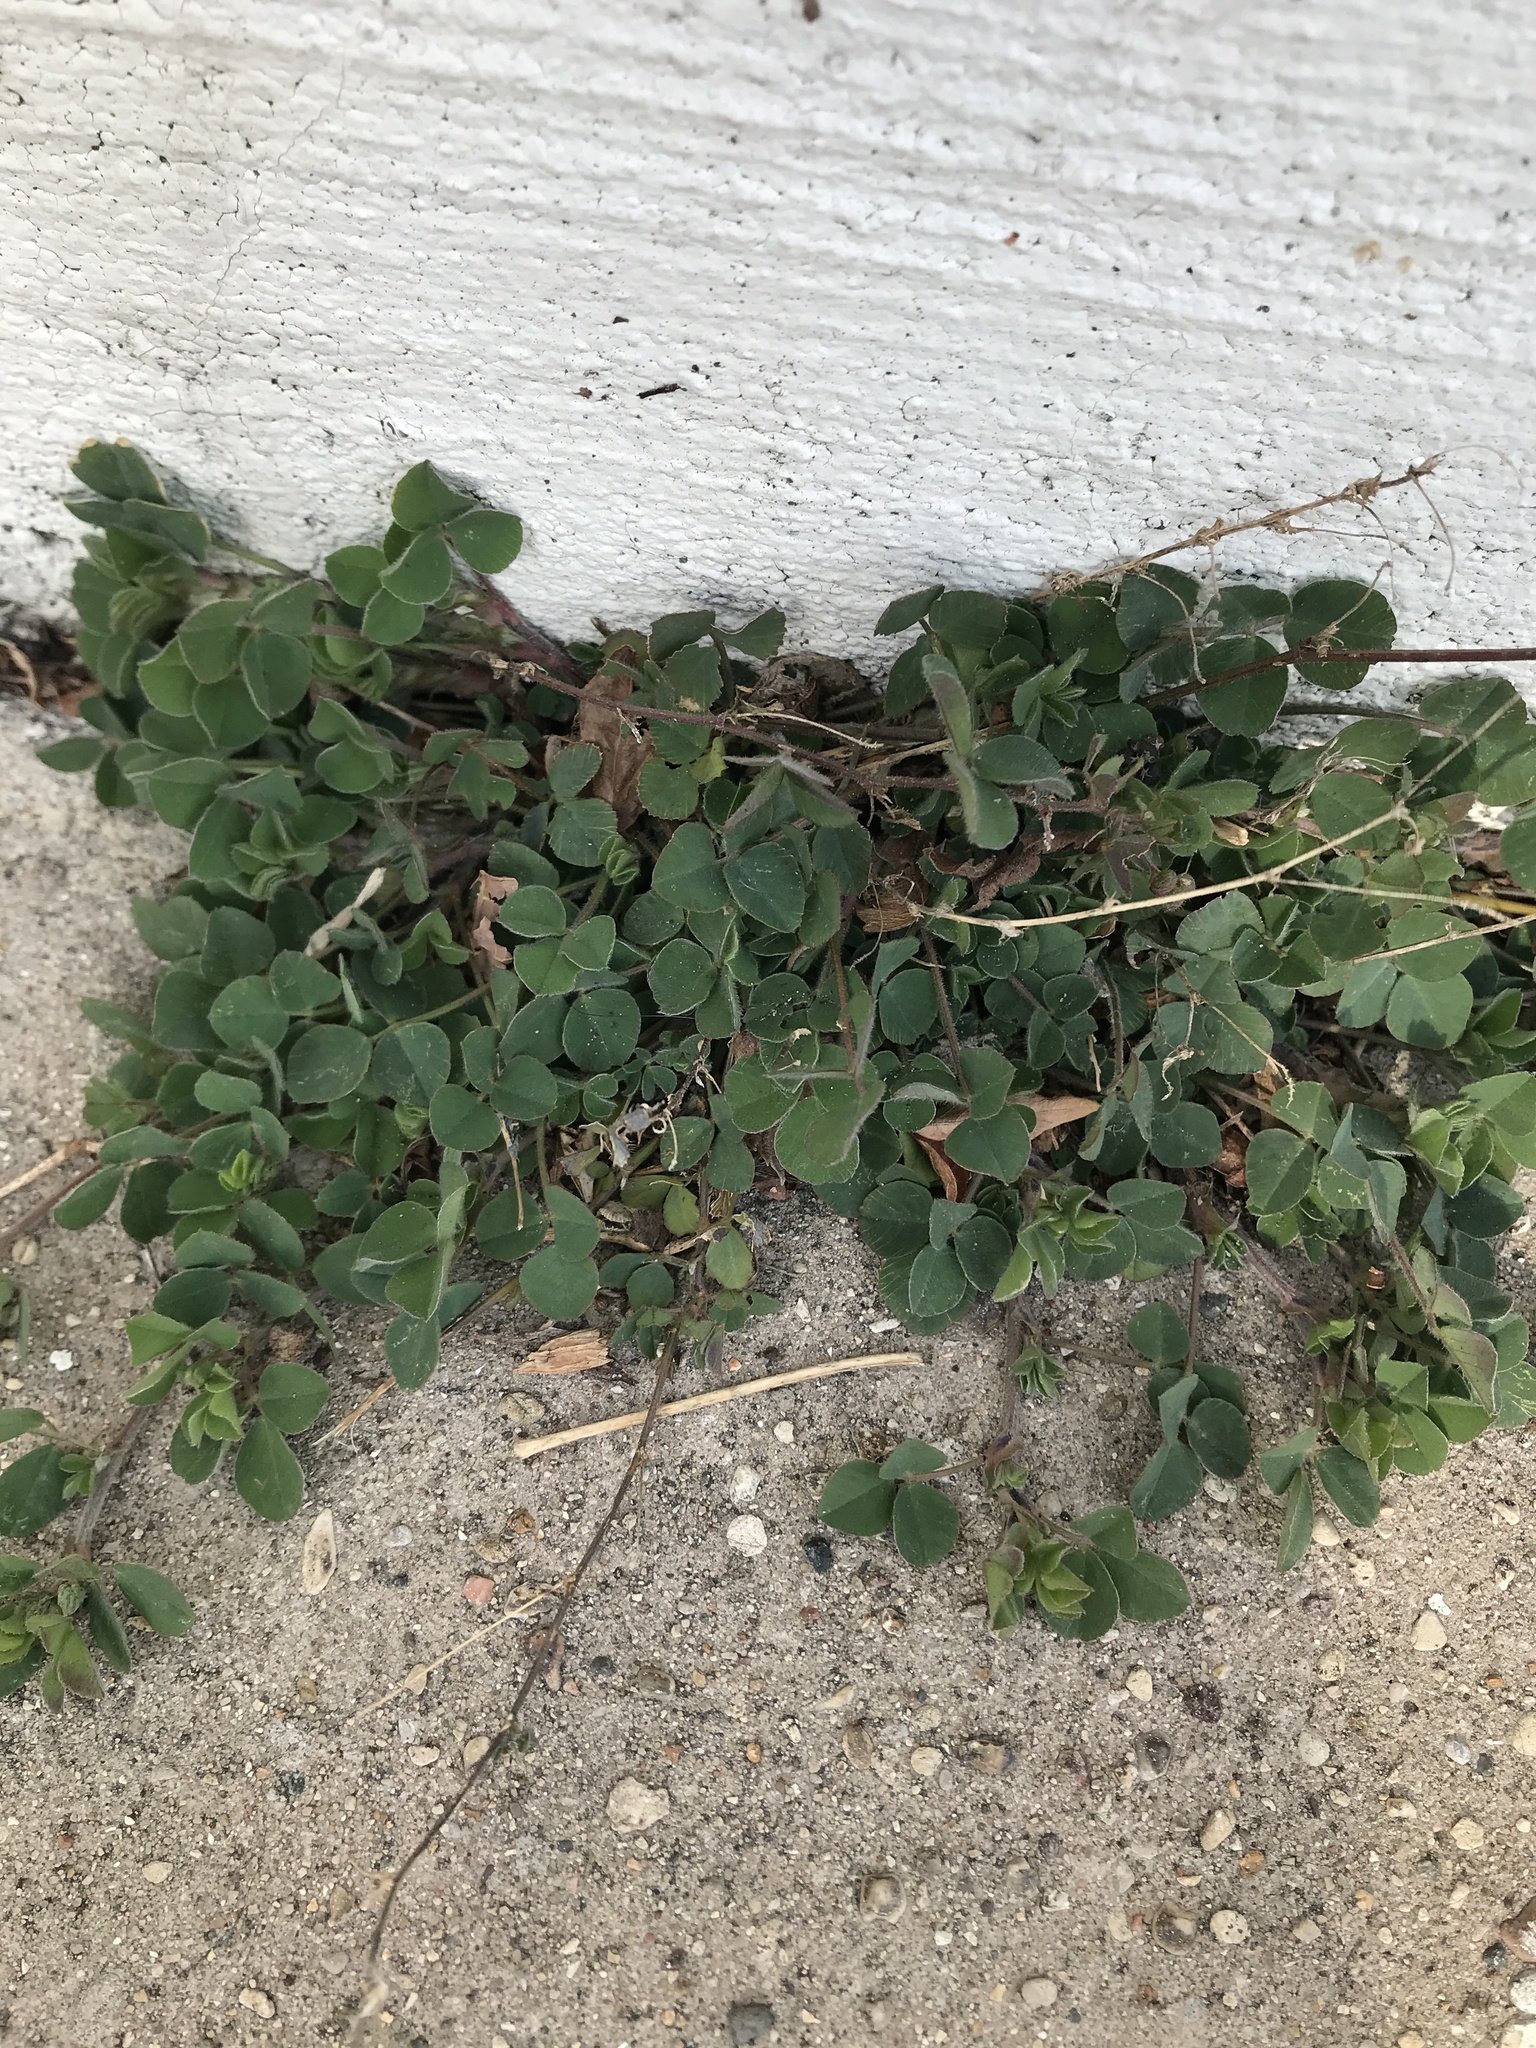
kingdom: Plantae
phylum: Tracheophyta
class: Magnoliopsida
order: Fabales
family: Fabaceae
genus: Medicago
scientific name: Medicago lupulina
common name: Black medick
